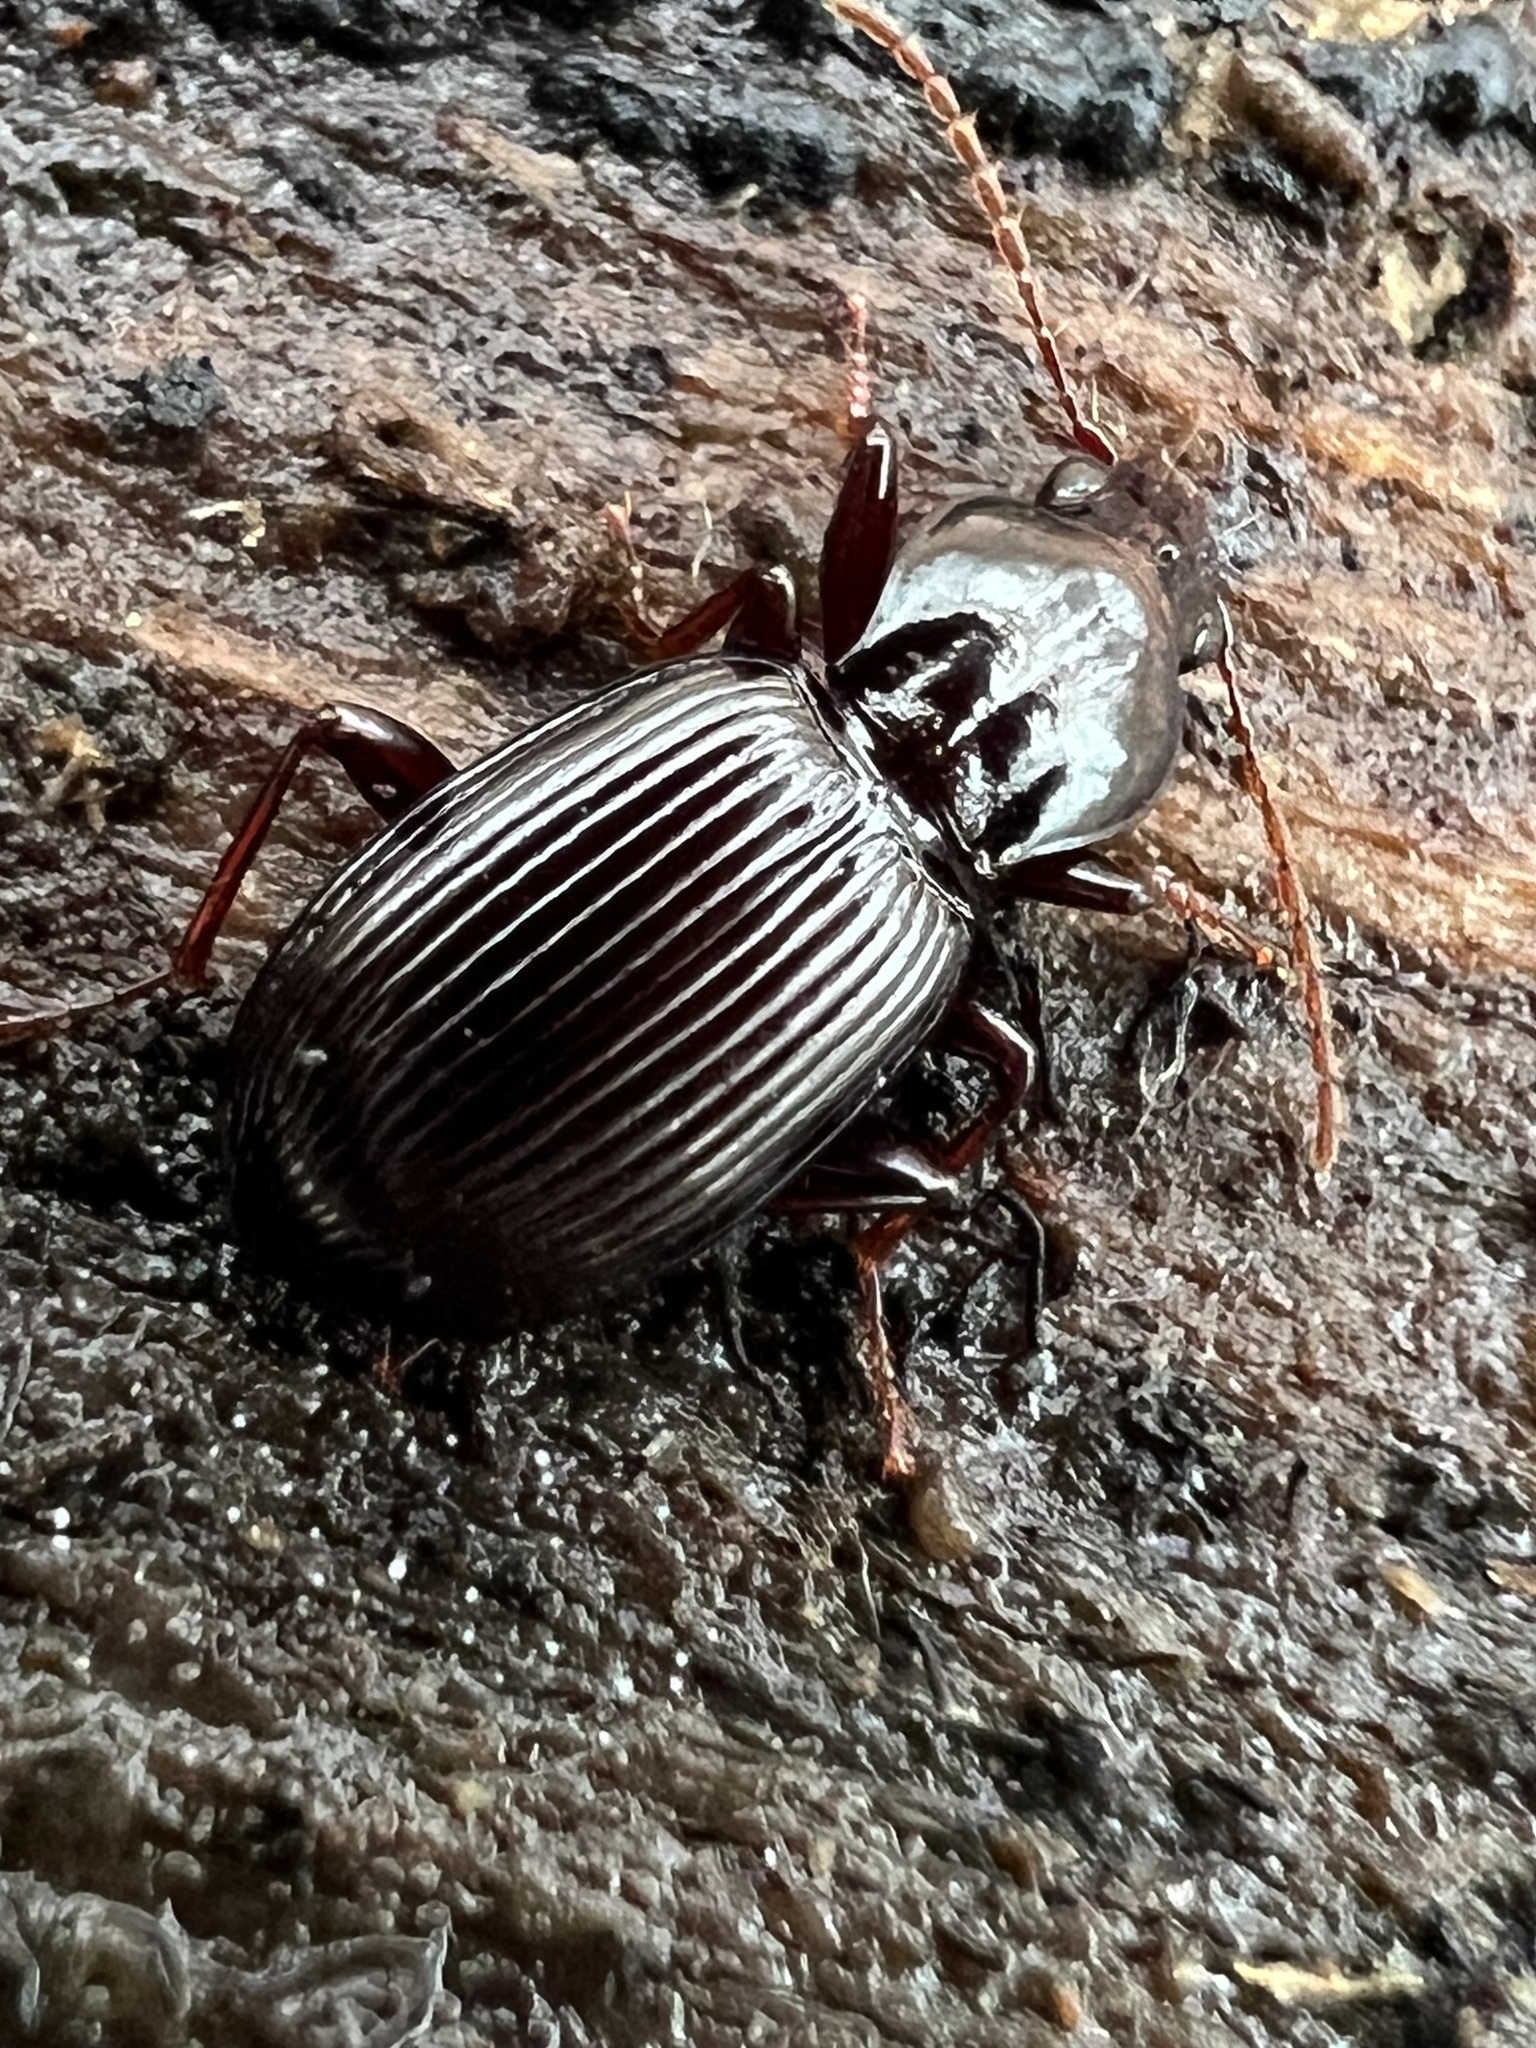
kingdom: Animalia
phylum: Arthropoda
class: Insecta
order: Coleoptera
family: Carabidae
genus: Gastrellarius
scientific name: Gastrellarius honestus
